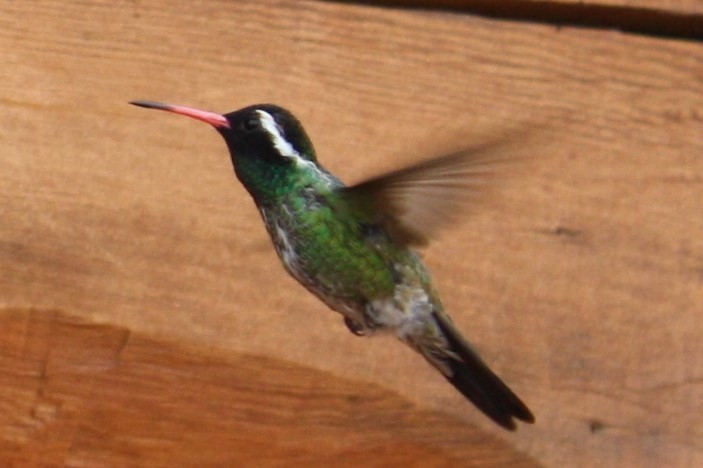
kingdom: Animalia
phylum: Chordata
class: Aves
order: Apodiformes
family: Trochilidae
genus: Basilinna
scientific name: Basilinna leucotis
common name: White-eared hummingbird
